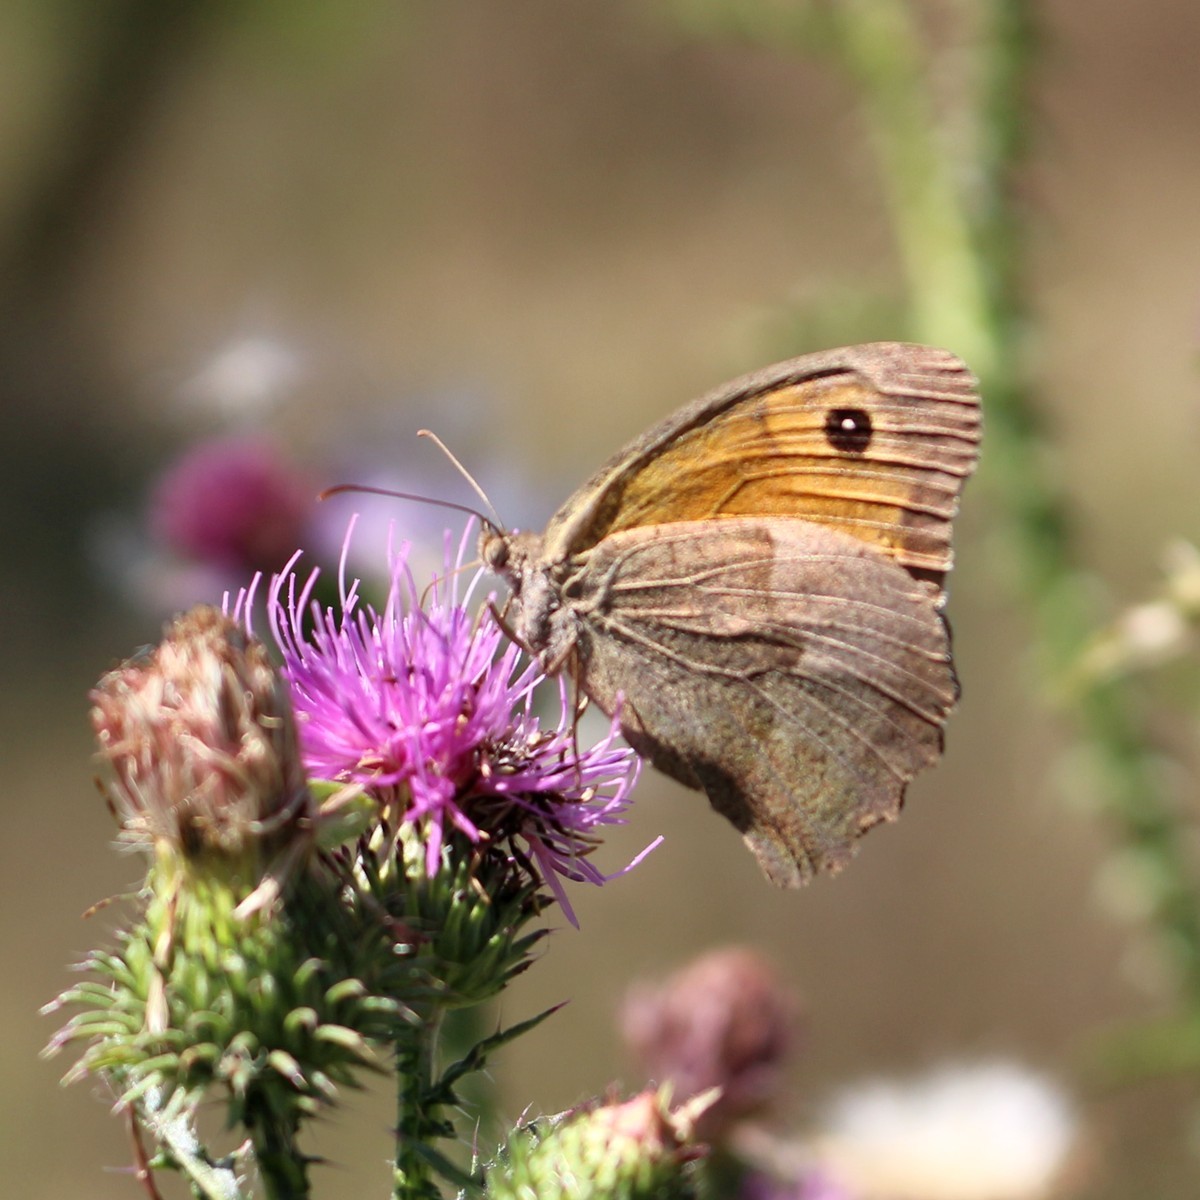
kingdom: Animalia
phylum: Arthropoda
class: Insecta
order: Lepidoptera
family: Nymphalidae
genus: Maniola
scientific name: Maniola jurtina
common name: Meadow brown
